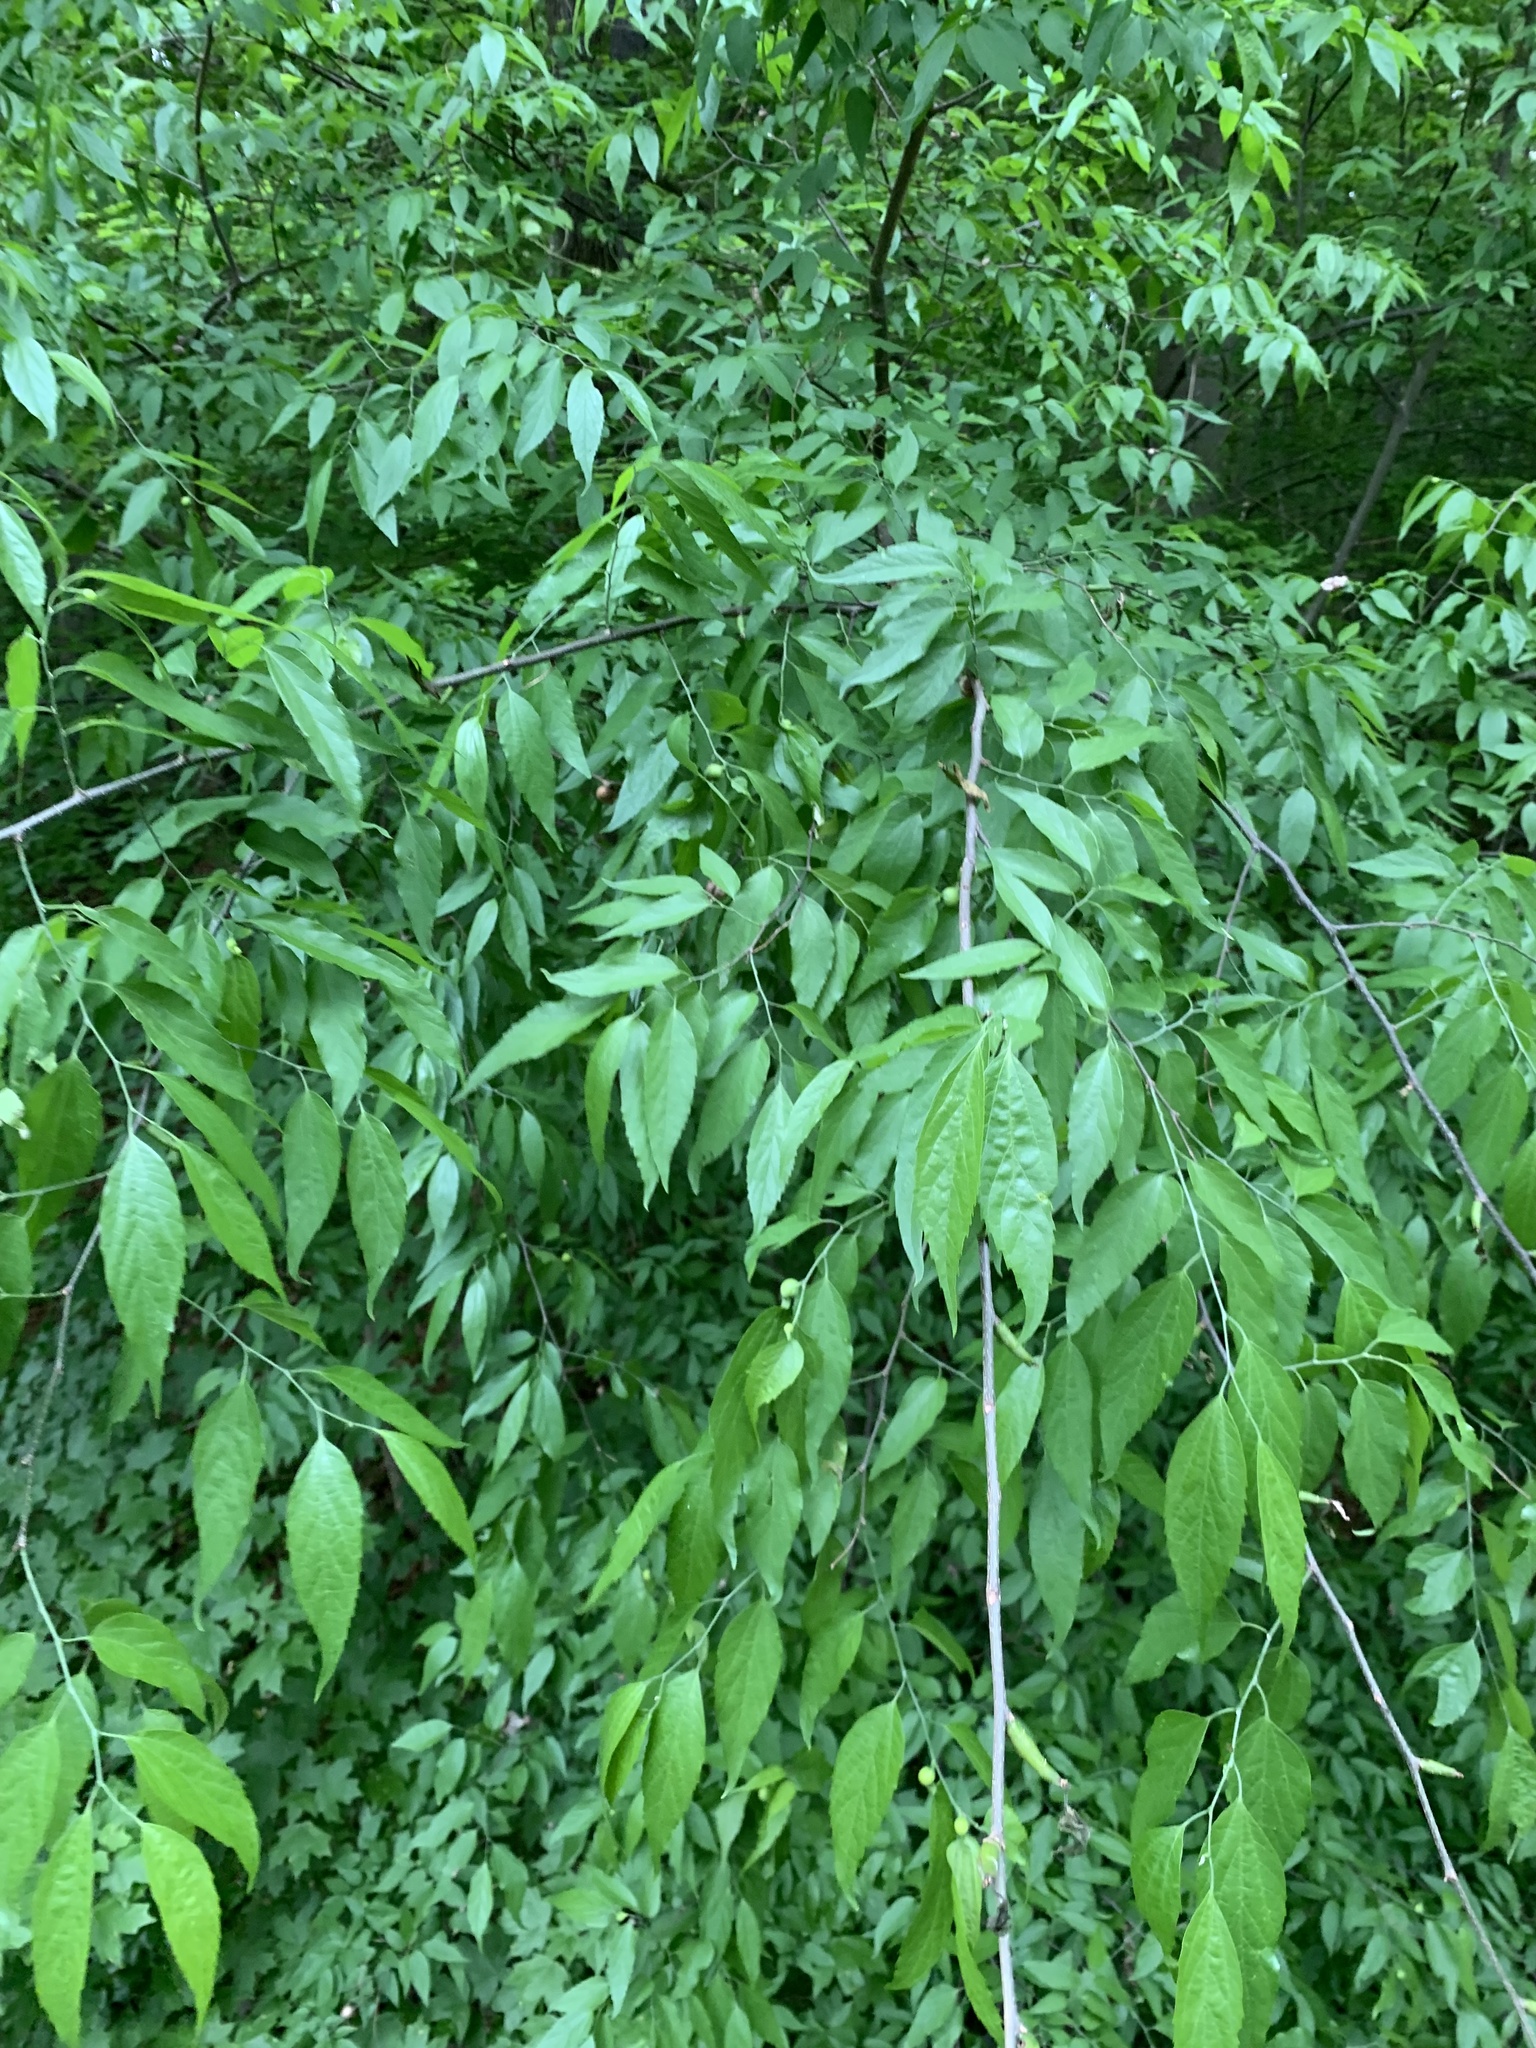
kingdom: Plantae
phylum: Tracheophyta
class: Magnoliopsida
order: Rosales
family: Cannabaceae
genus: Celtis
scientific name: Celtis laevigata
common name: Sugarberry
